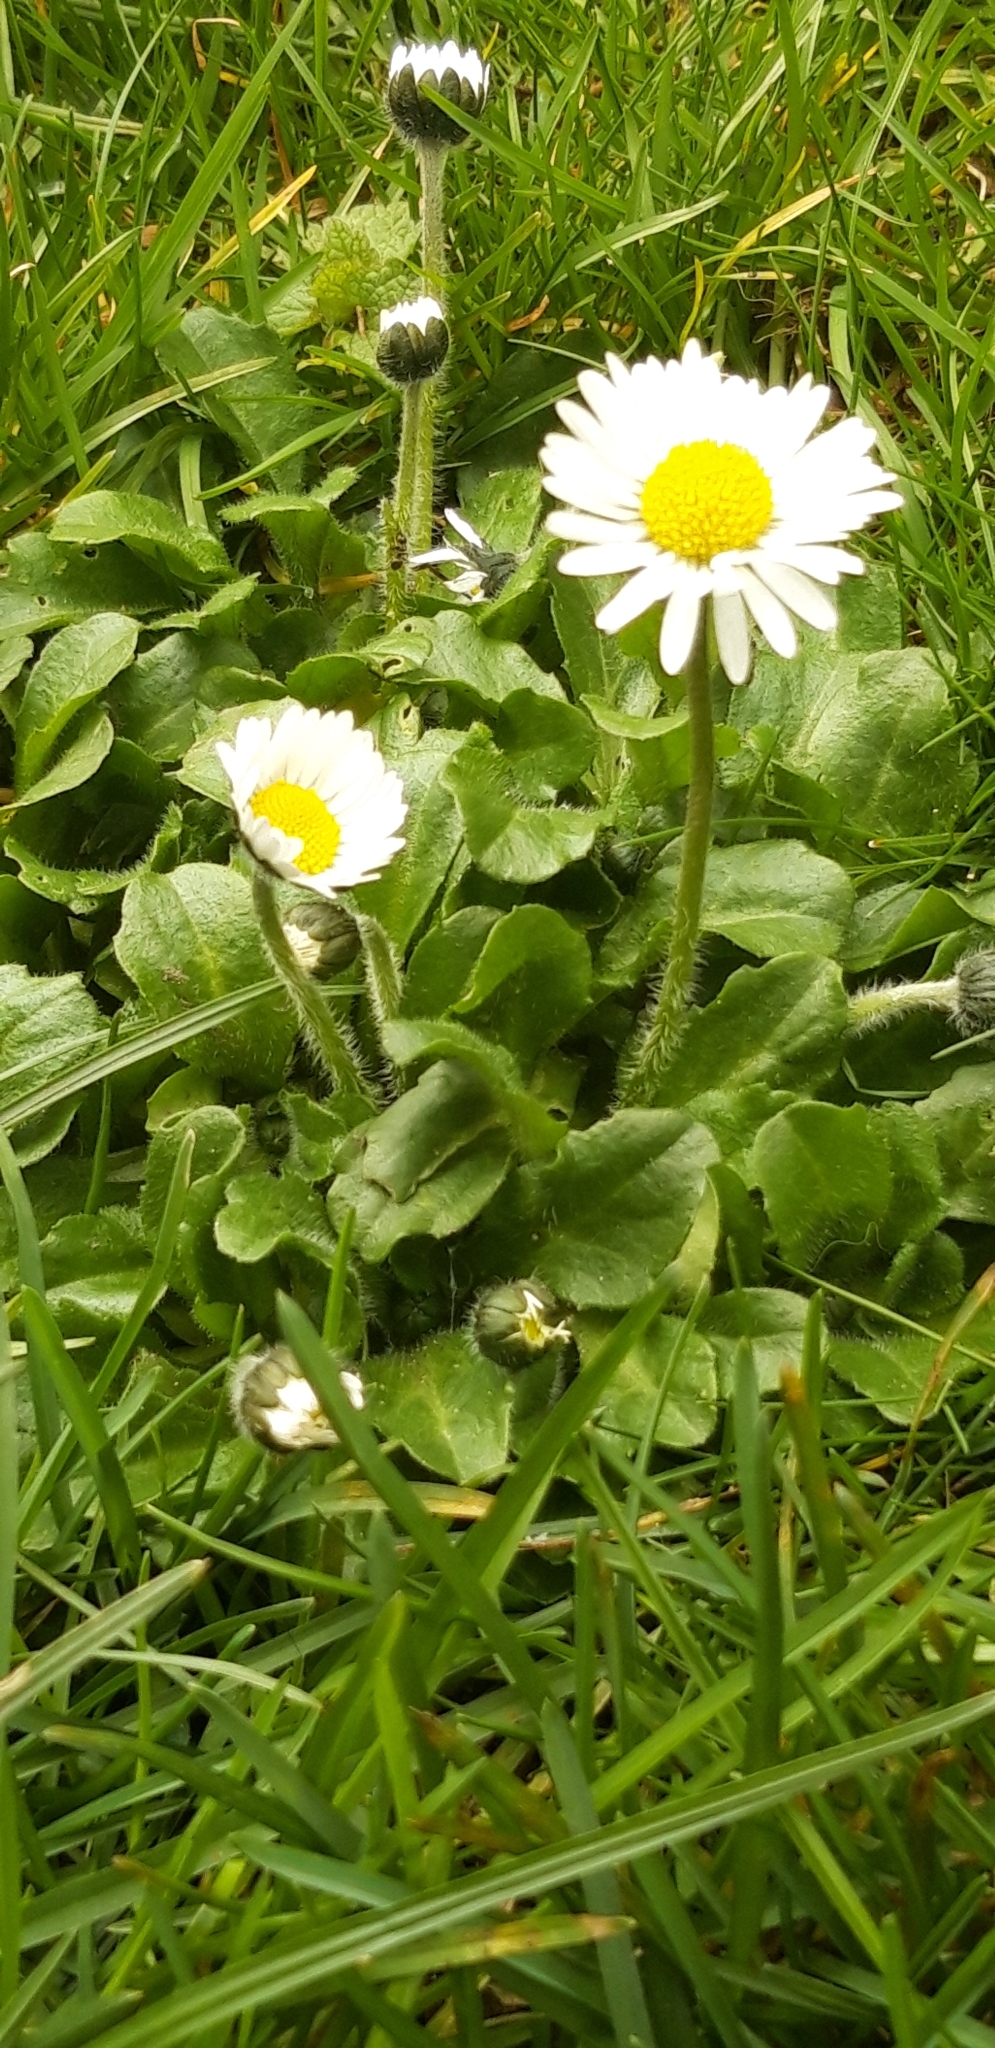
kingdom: Plantae
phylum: Tracheophyta
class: Magnoliopsida
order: Asterales
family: Asteraceae
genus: Bellis
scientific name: Bellis perennis
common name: Lawndaisy
